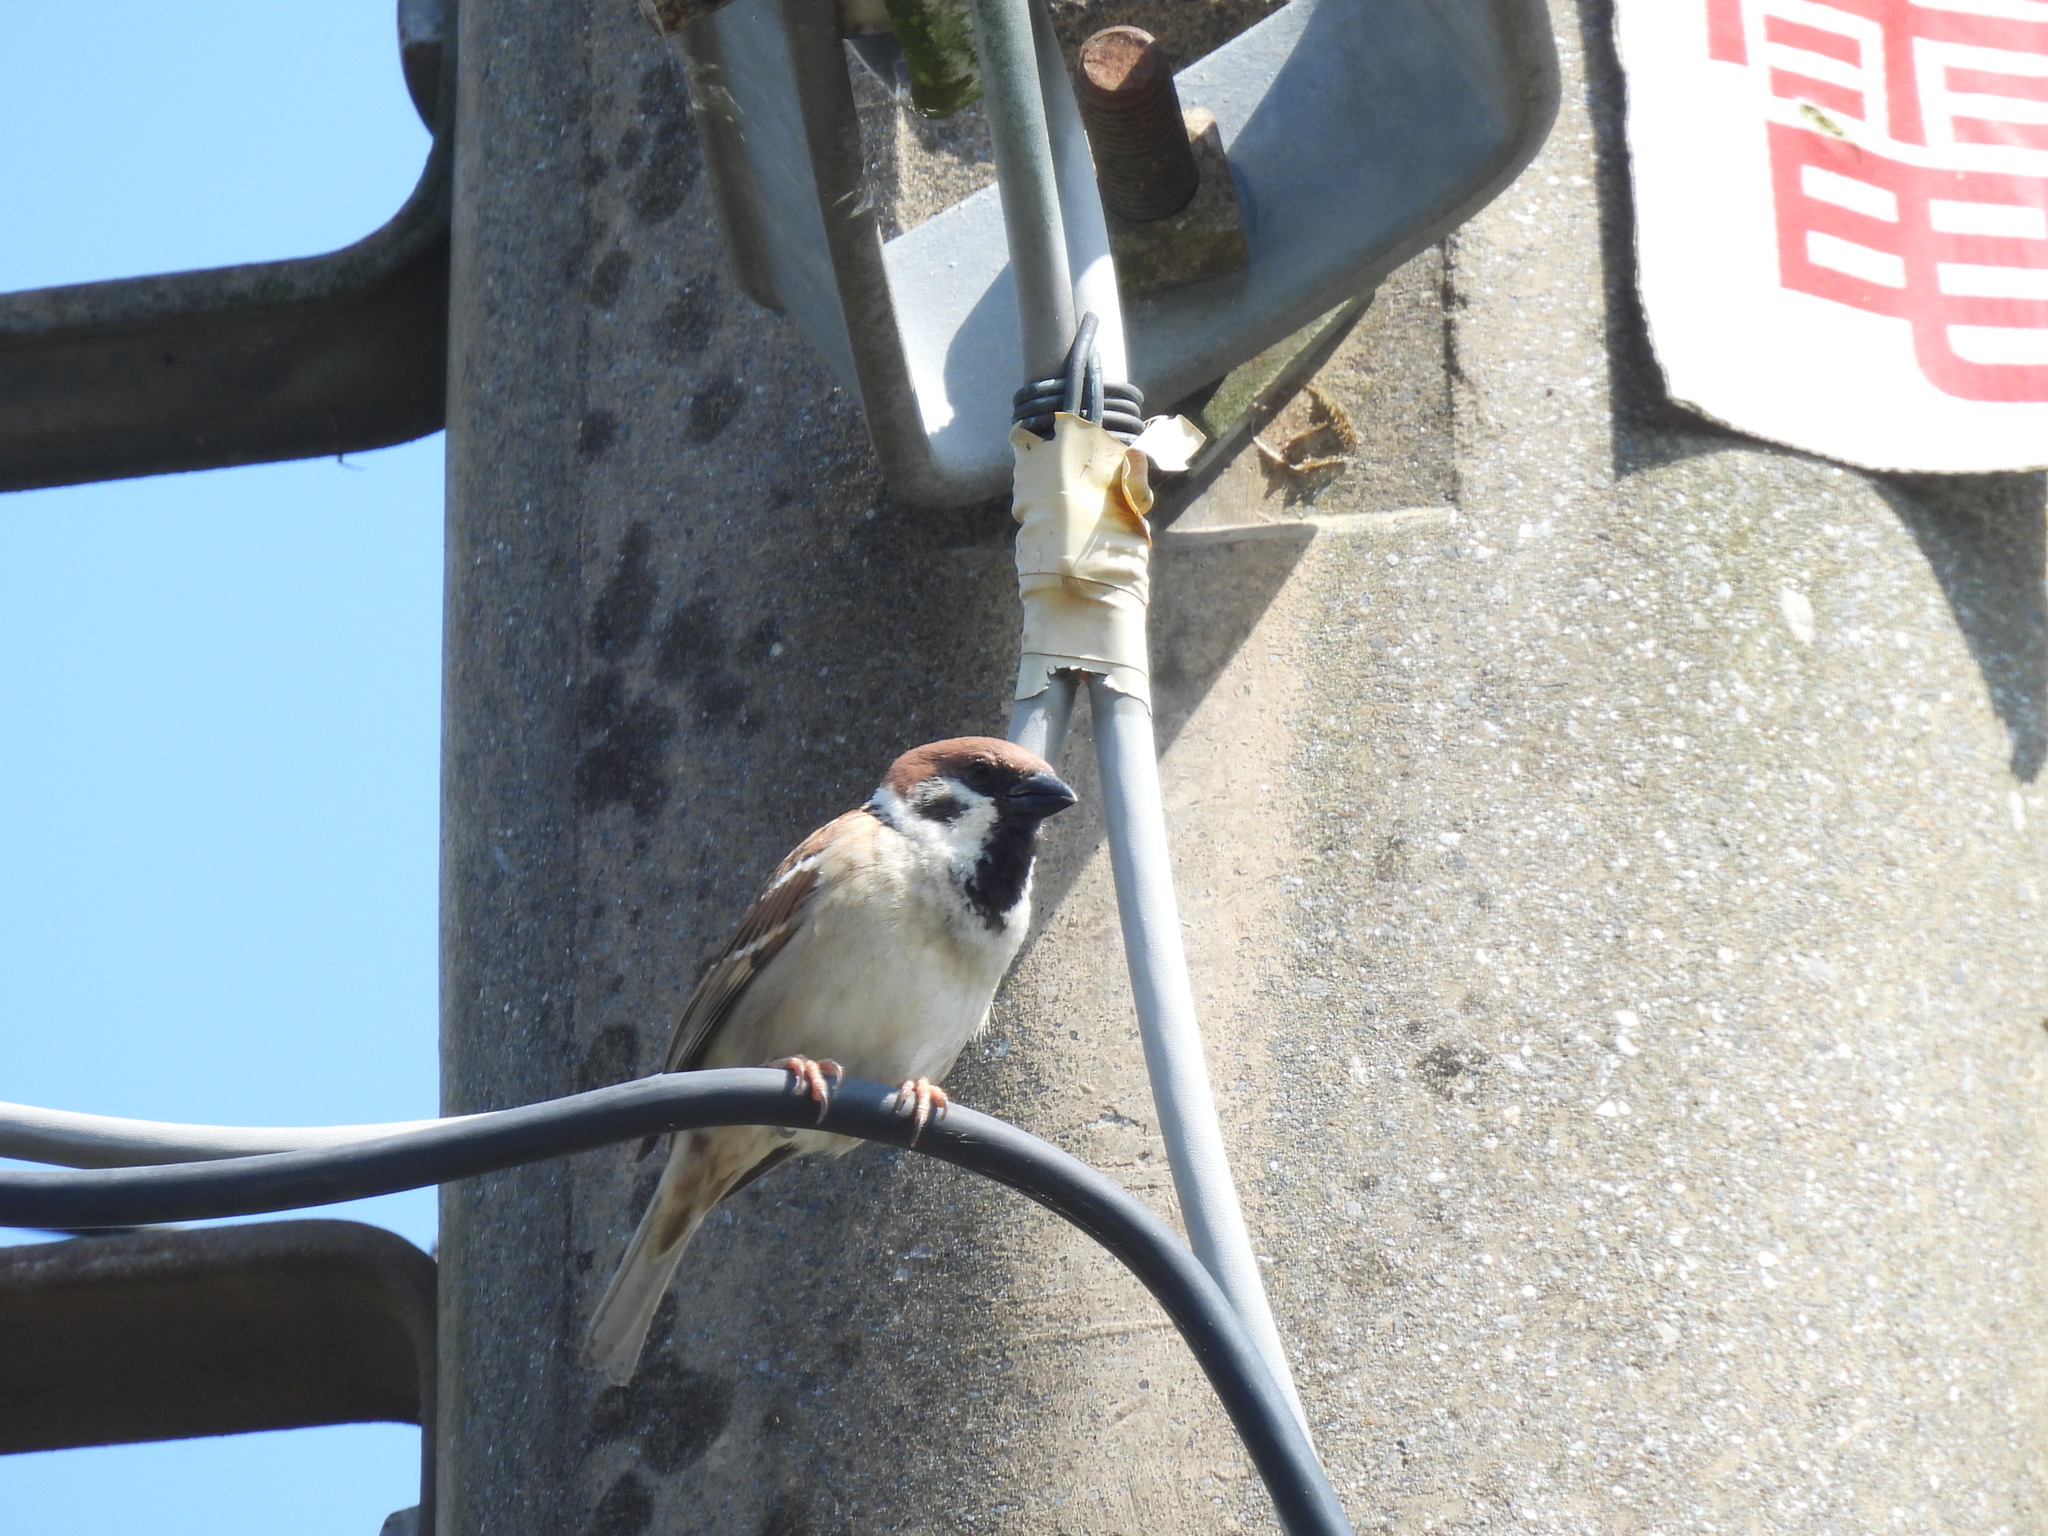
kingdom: Animalia
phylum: Chordata
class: Aves
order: Passeriformes
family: Passeridae
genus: Passer
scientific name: Passer montanus
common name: Eurasian tree sparrow
